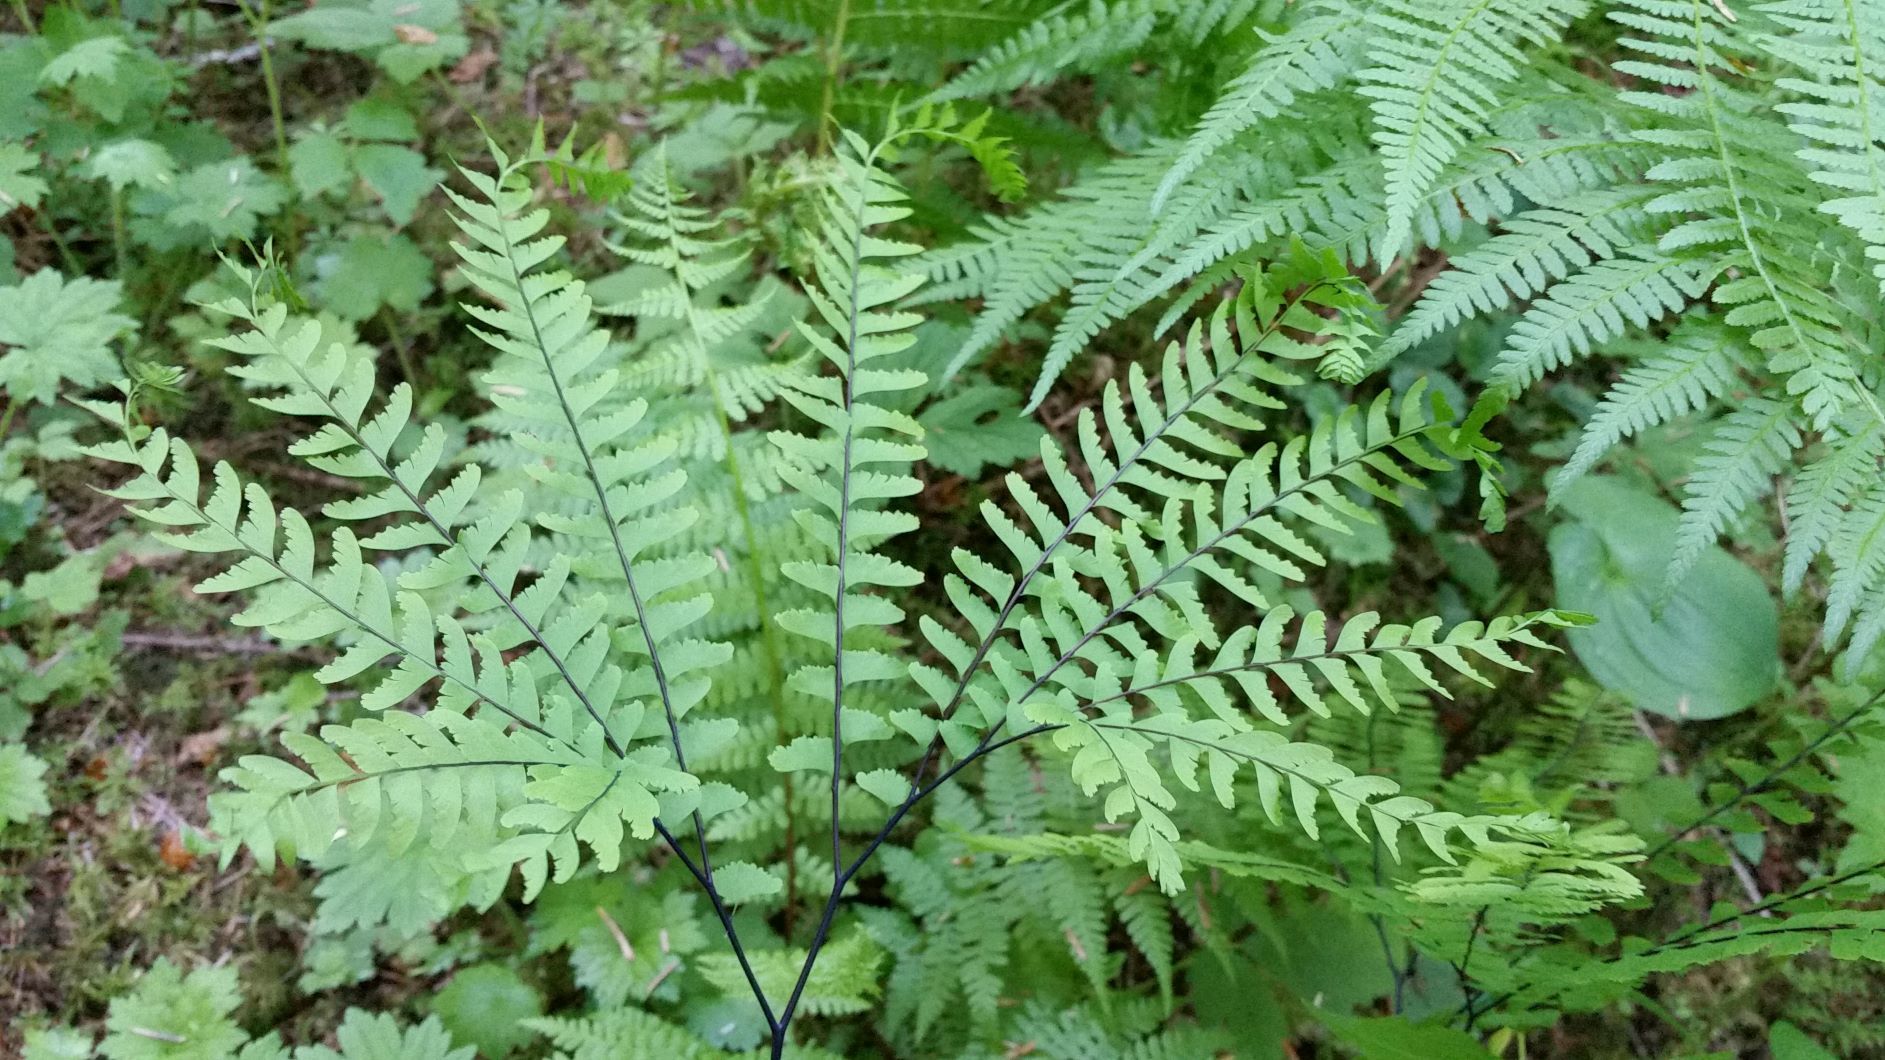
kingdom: Plantae
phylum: Tracheophyta
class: Polypodiopsida
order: Polypodiales
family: Pteridaceae
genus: Adiantum
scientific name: Adiantum aleuticum
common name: Aleutian maidenhair fern
